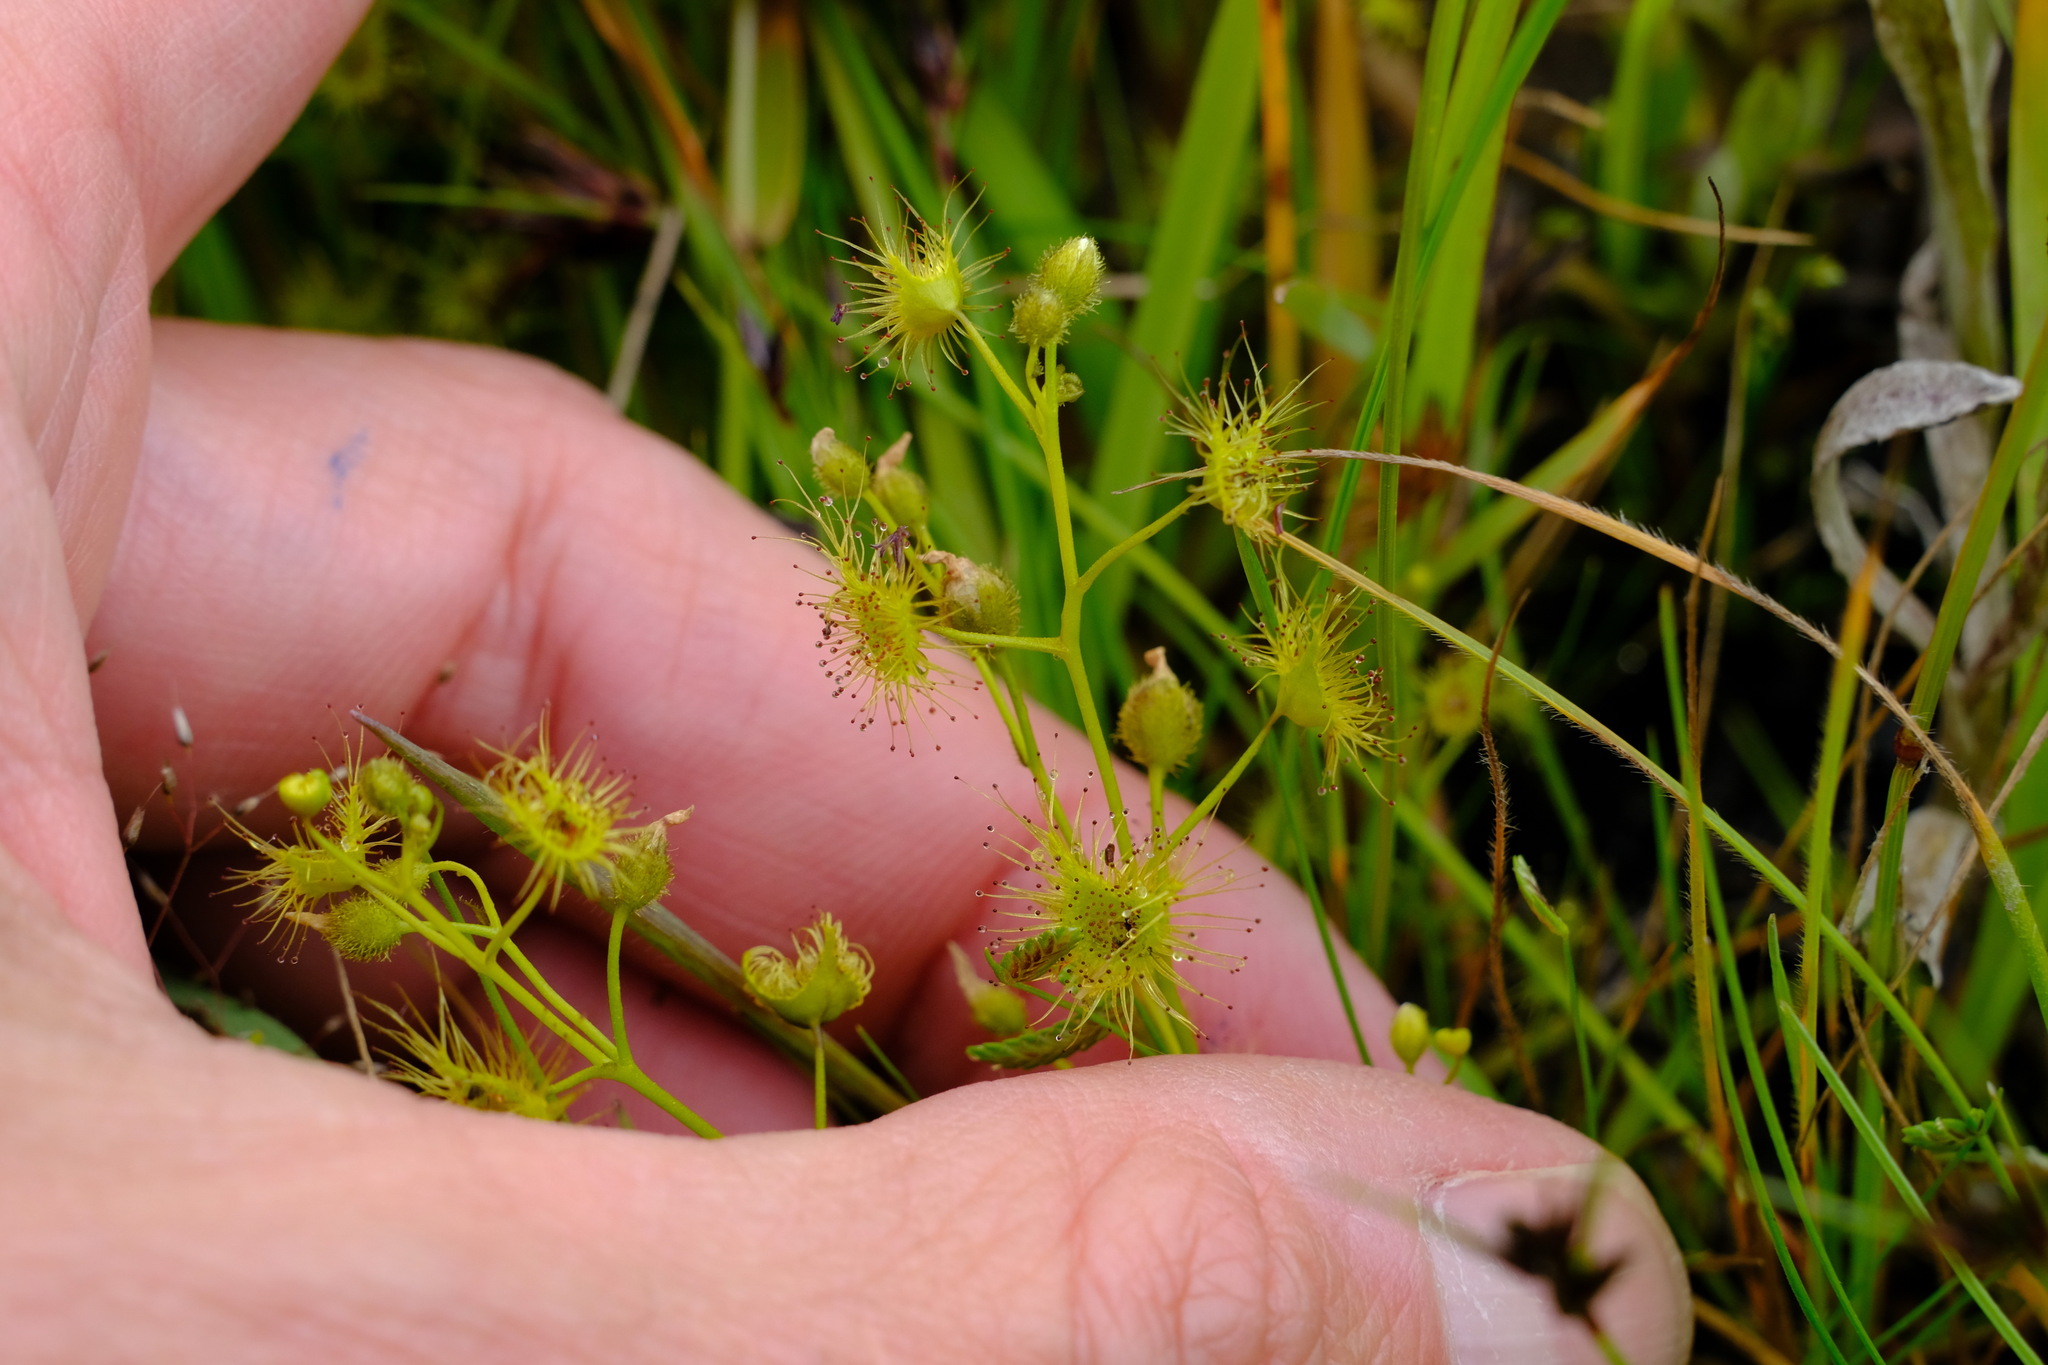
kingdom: Plantae
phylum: Tracheophyta
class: Magnoliopsida
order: Caryophyllales
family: Droseraceae
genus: Drosera
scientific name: Drosera hookeri
